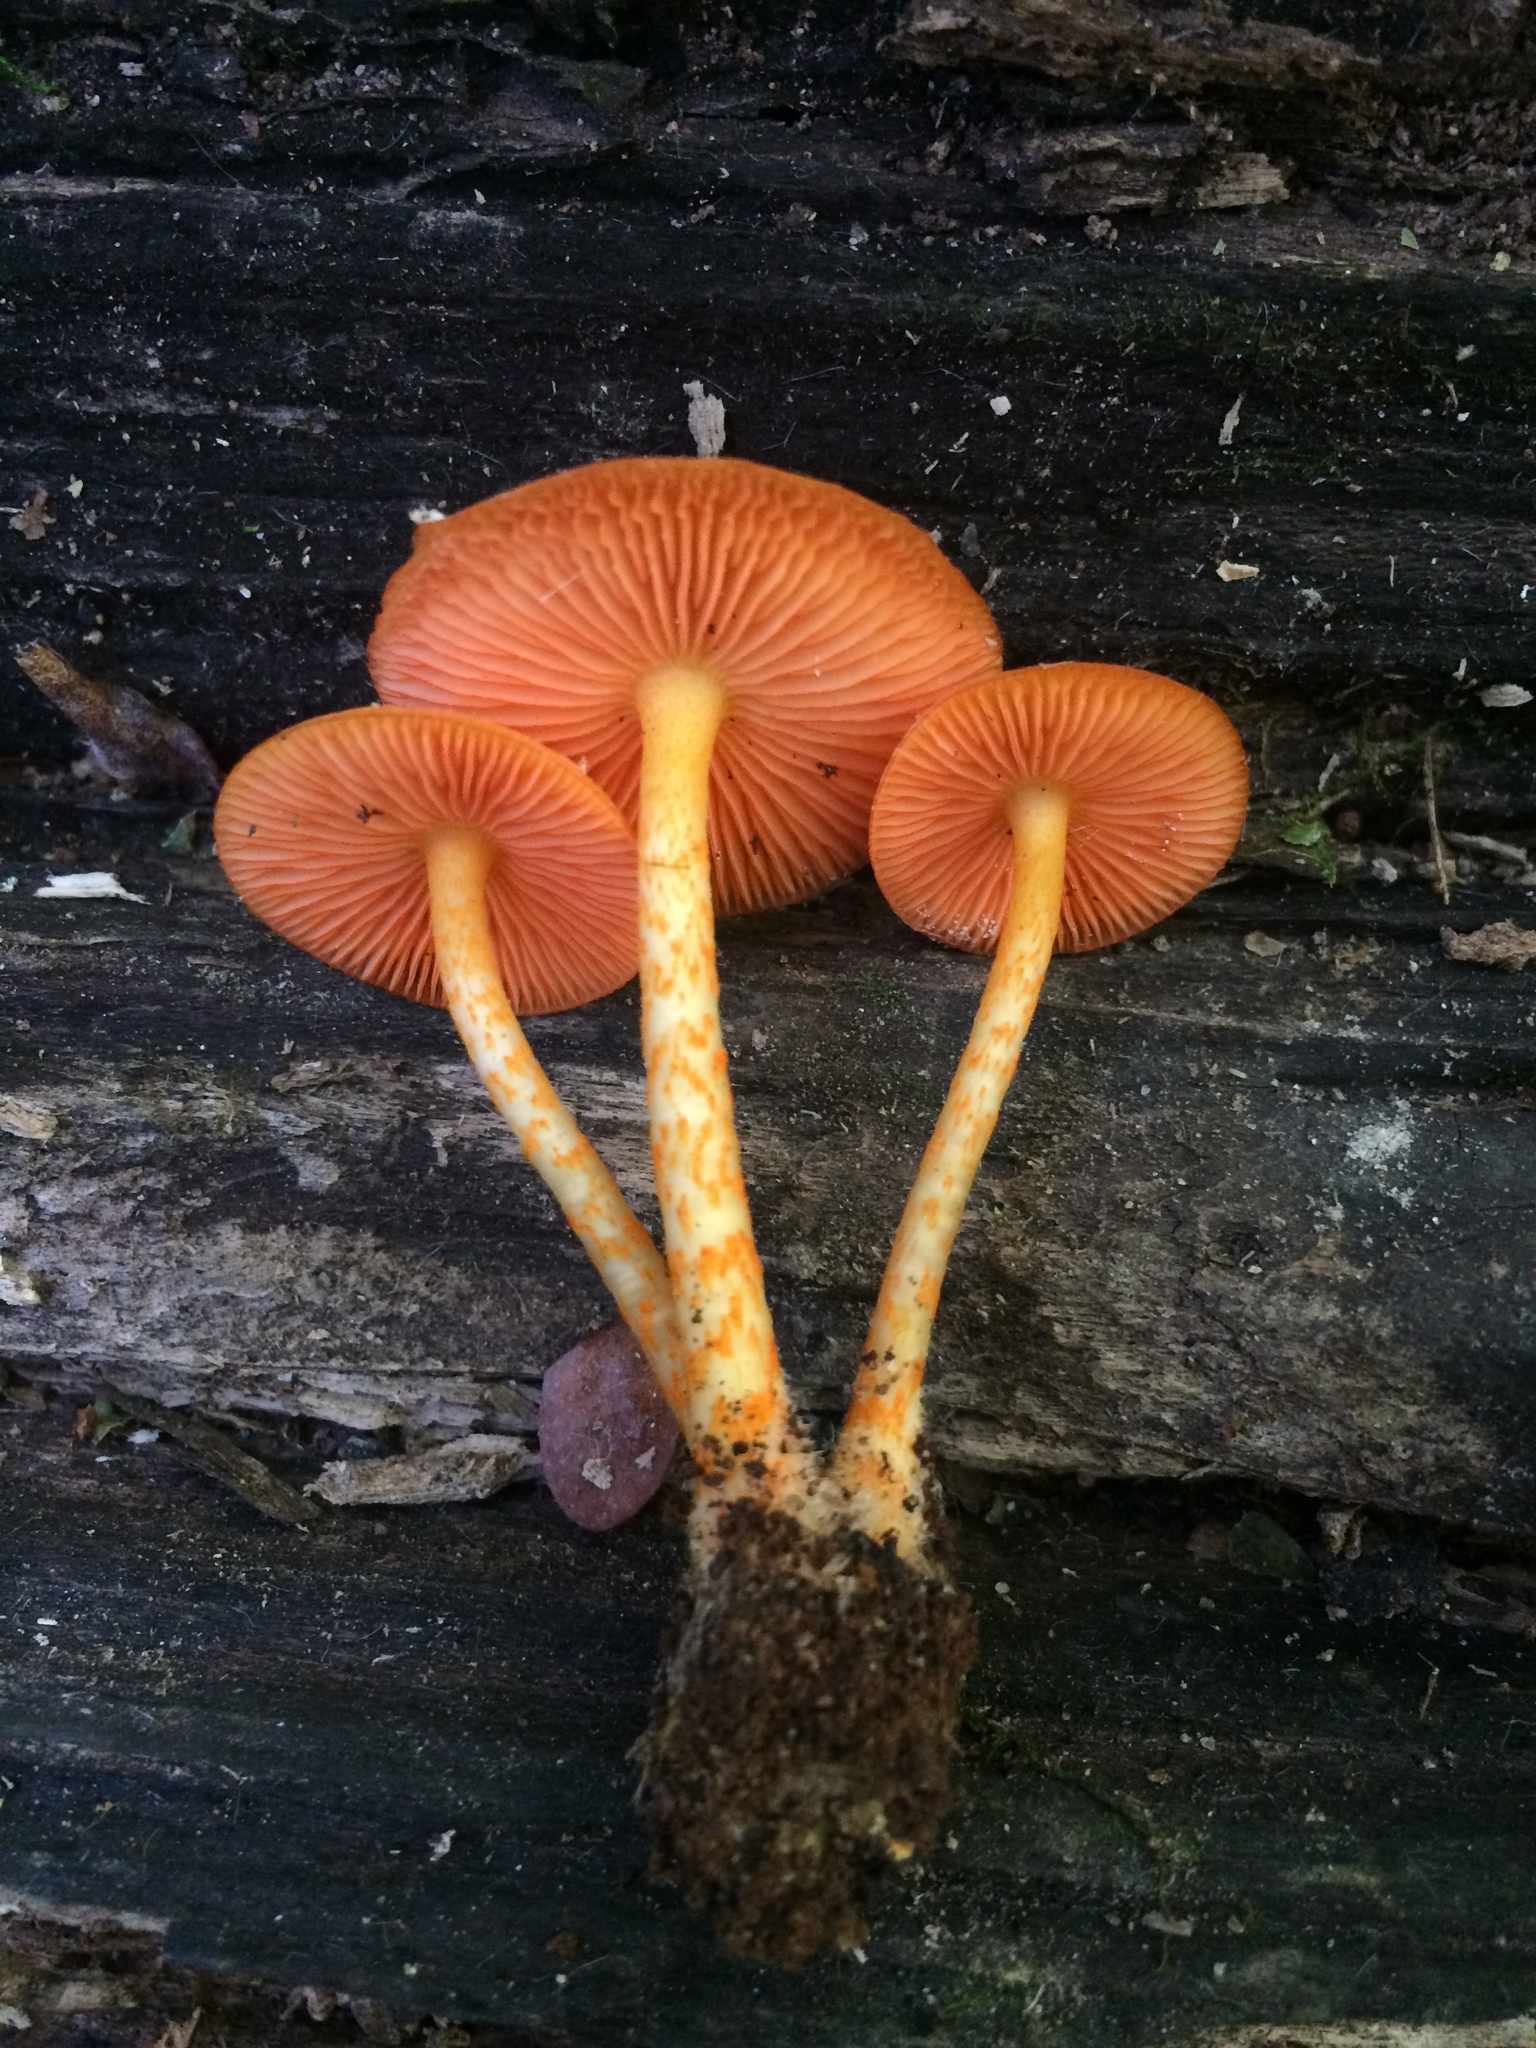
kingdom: Fungi
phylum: Basidiomycota
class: Agaricomycetes
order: Agaricales
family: Mycenaceae
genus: Mycena
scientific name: Mycena leaiana
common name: Orange mycena
